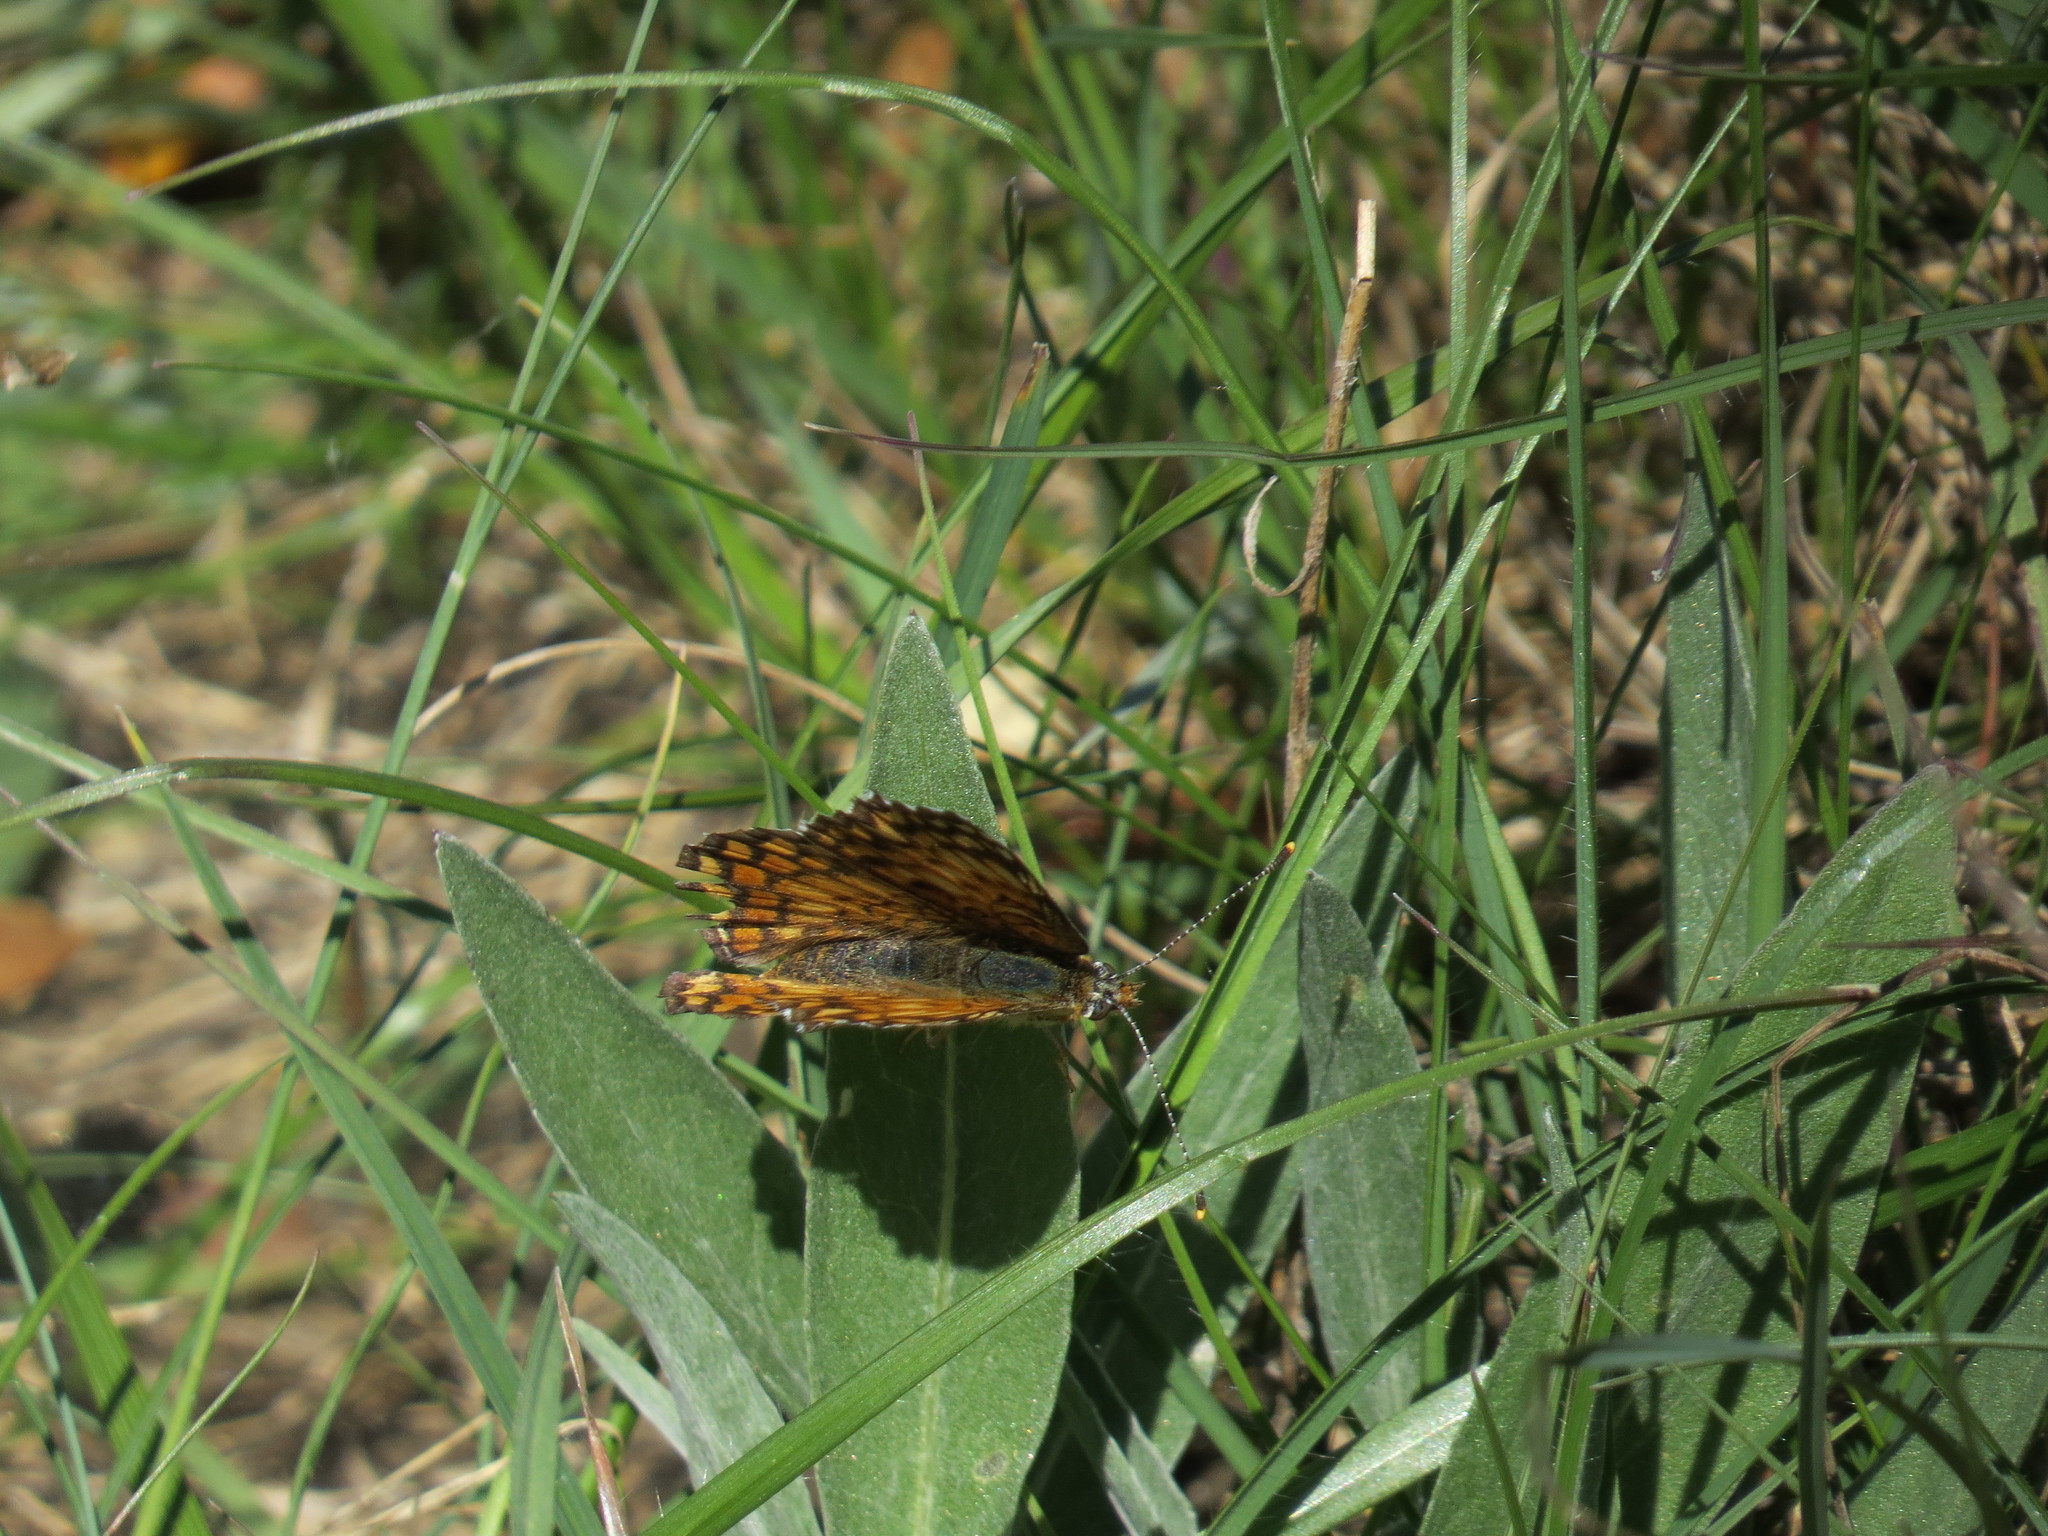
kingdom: Animalia
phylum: Arthropoda
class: Insecta
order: Lepidoptera
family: Nymphalidae
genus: Melitaea
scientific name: Melitaea phoebe
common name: Knapweed fritillary
